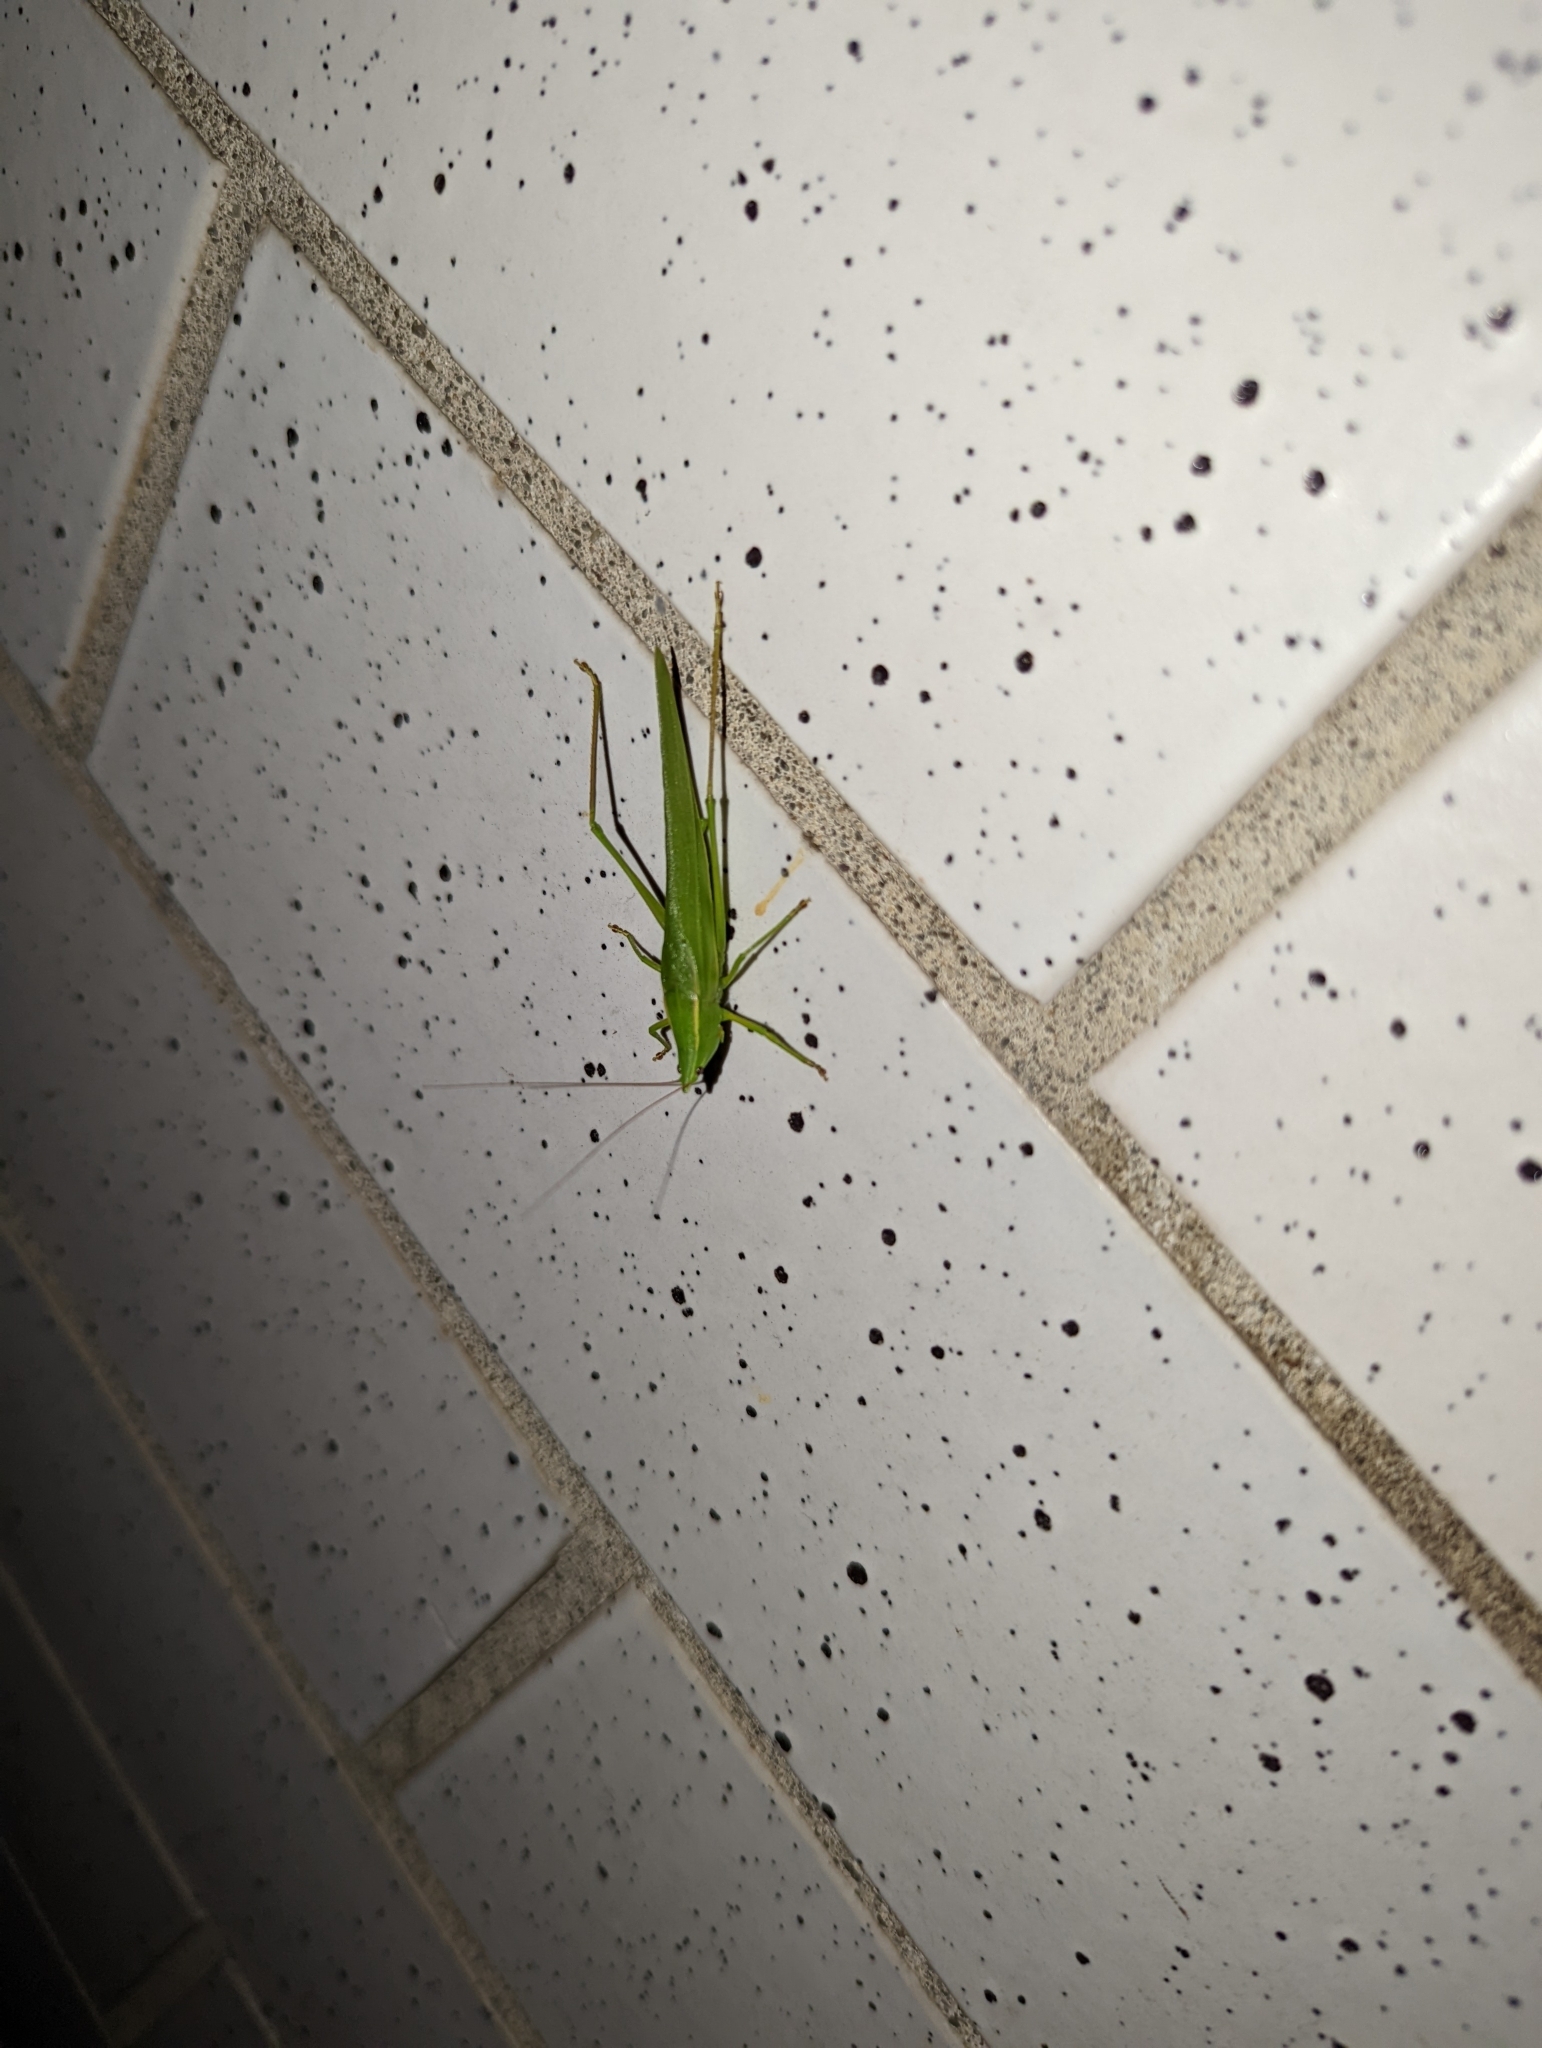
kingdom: Animalia
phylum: Arthropoda
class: Insecta
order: Orthoptera
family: Tettigoniidae
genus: Neoconocephalus
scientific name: Neoconocephalus ensiger
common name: Swordbearer
